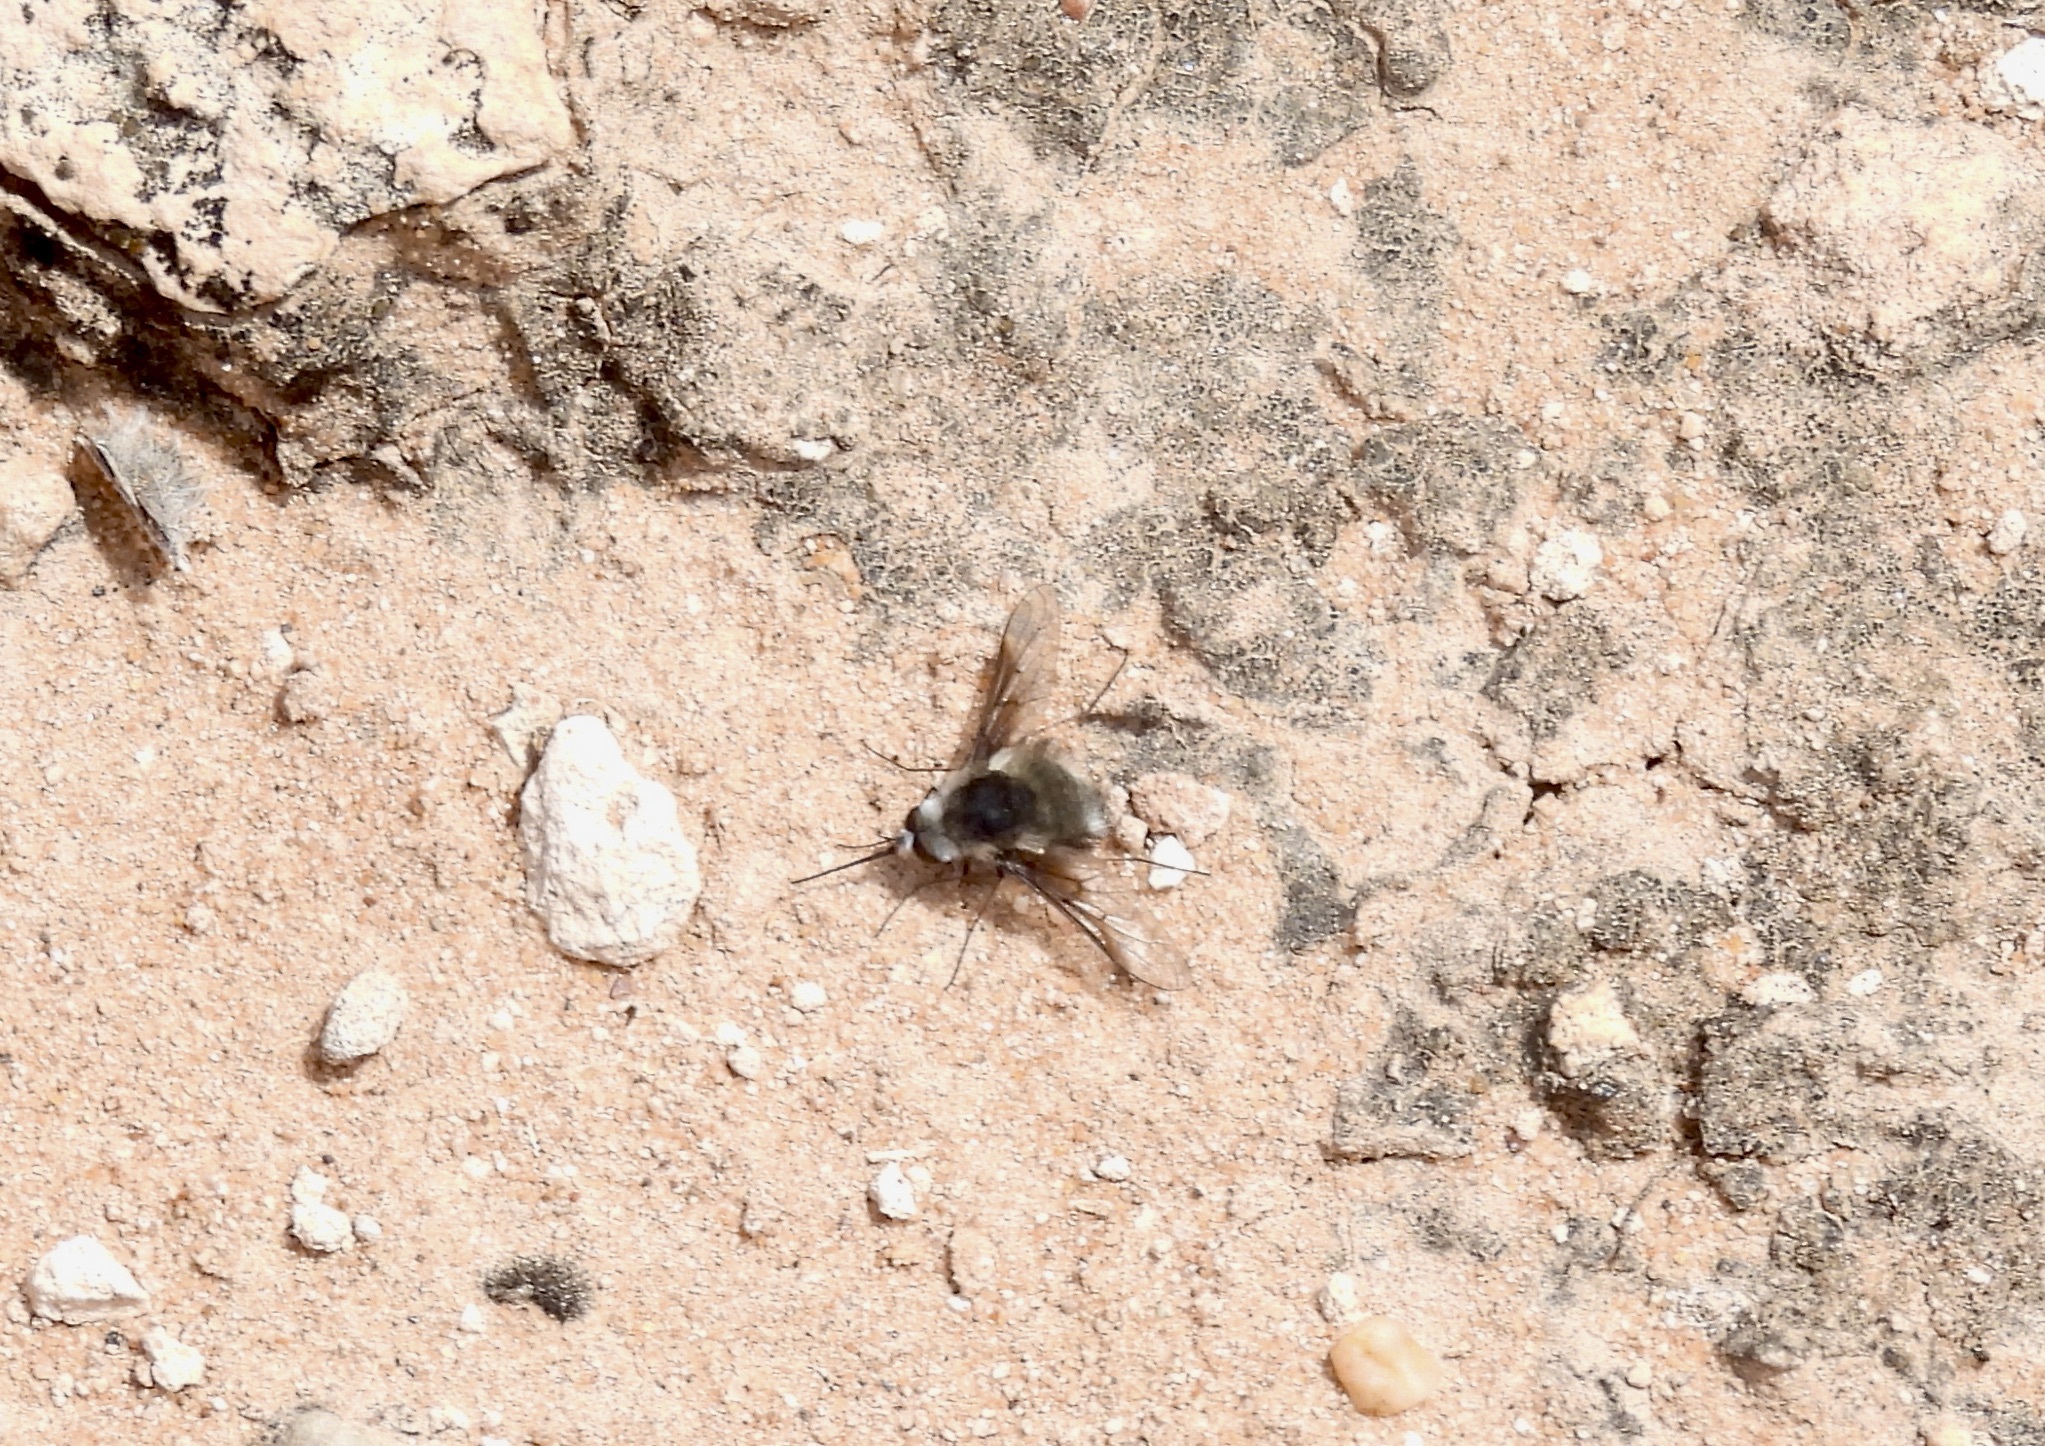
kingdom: Animalia
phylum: Arthropoda
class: Insecta
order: Diptera
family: Bombyliidae
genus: Bombylius
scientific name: Bombylius
